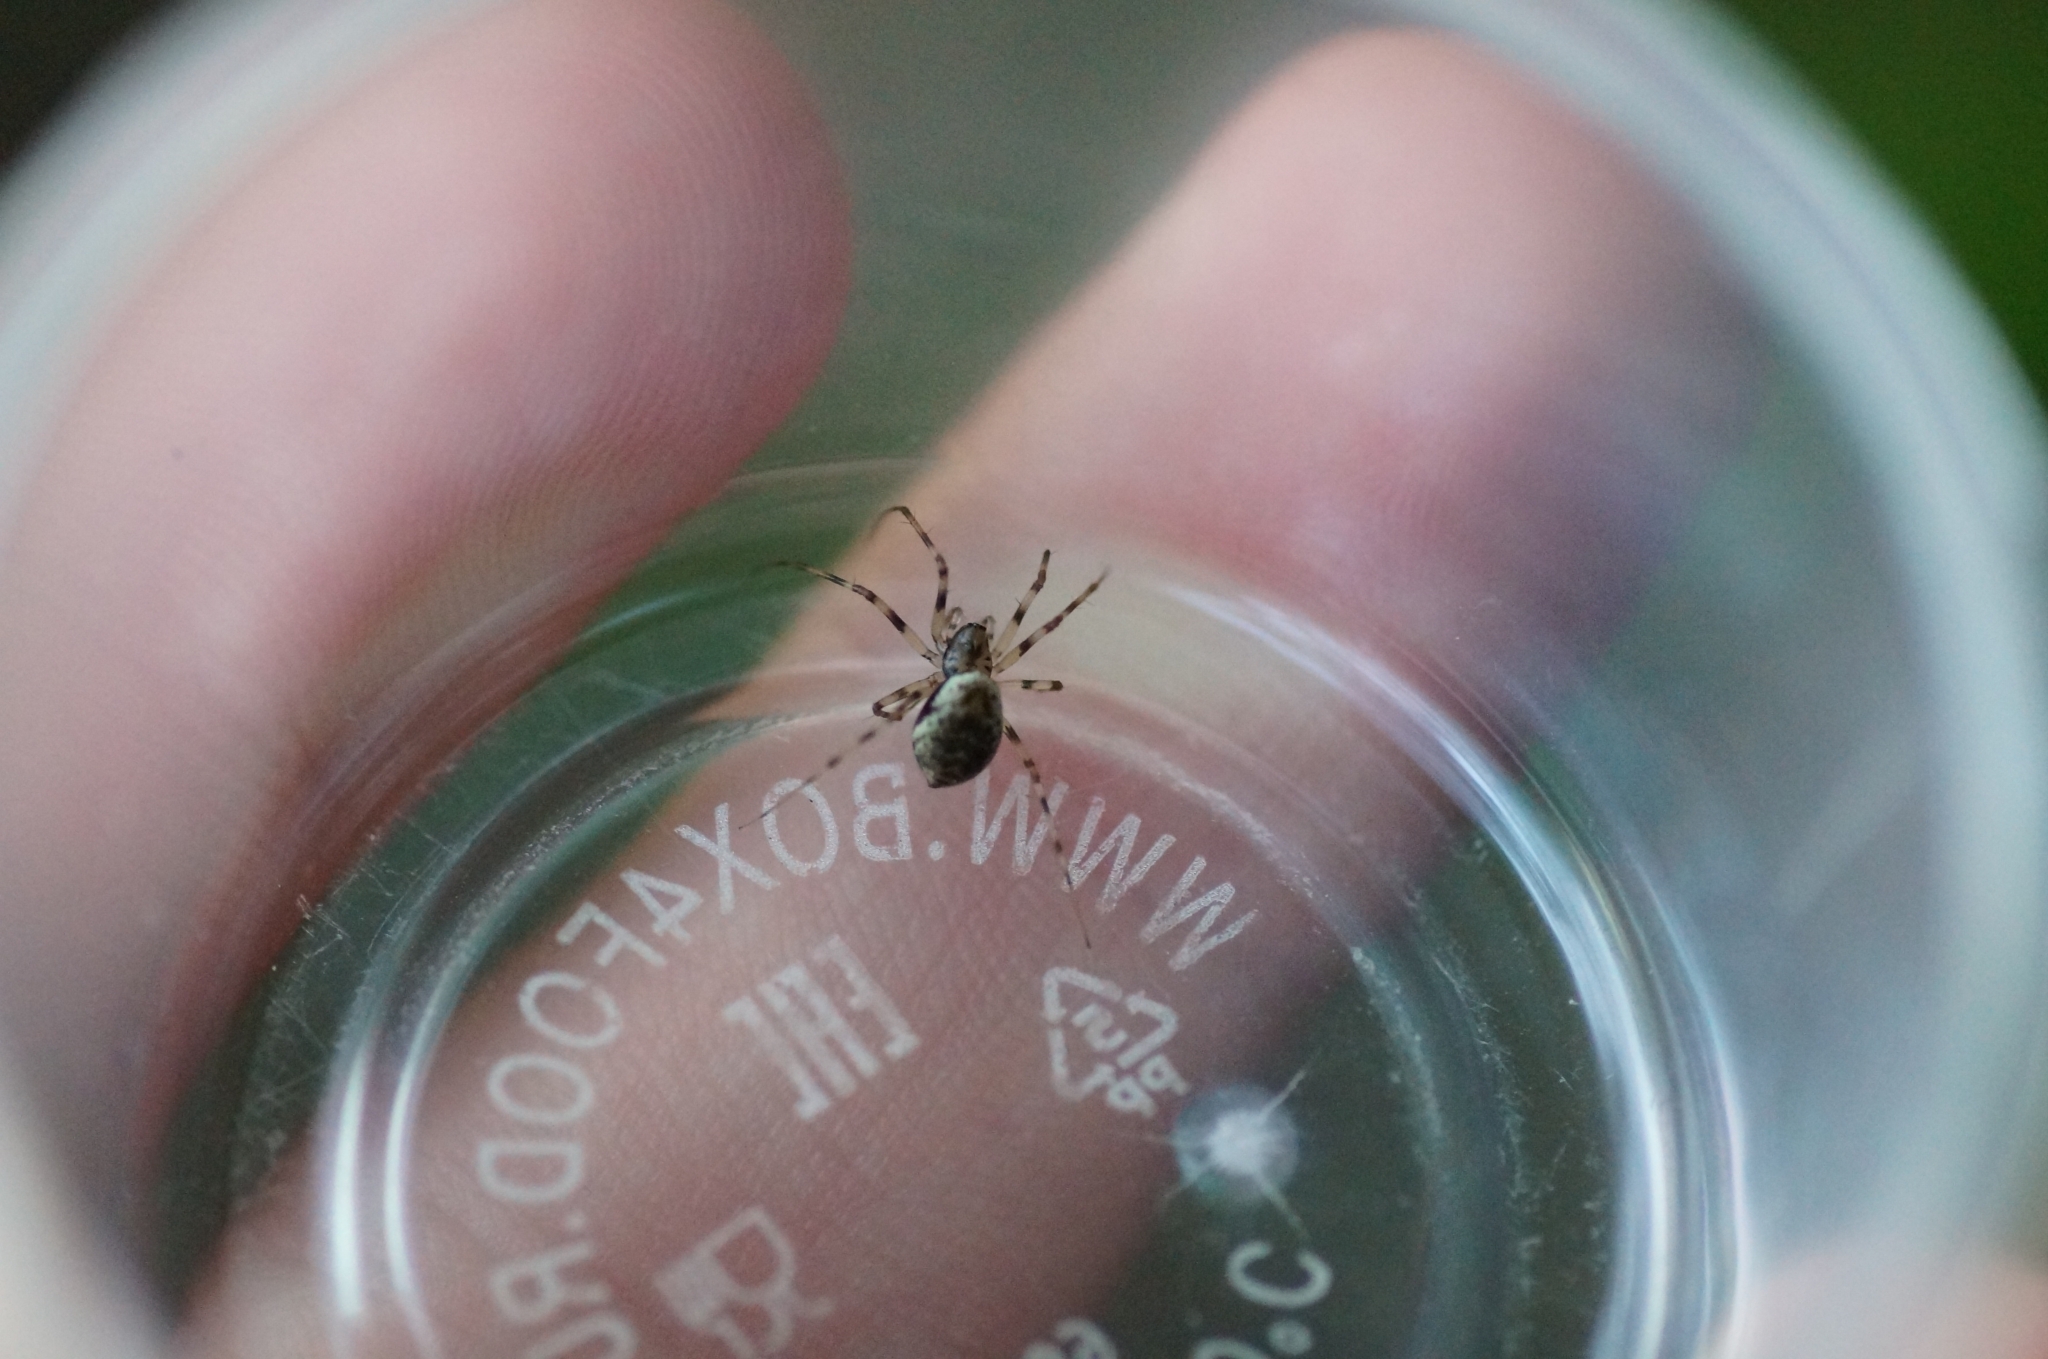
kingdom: Animalia
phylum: Arthropoda
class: Arachnida
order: Araneae
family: Linyphiidae
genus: Drapetisca
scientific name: Drapetisca socialis
